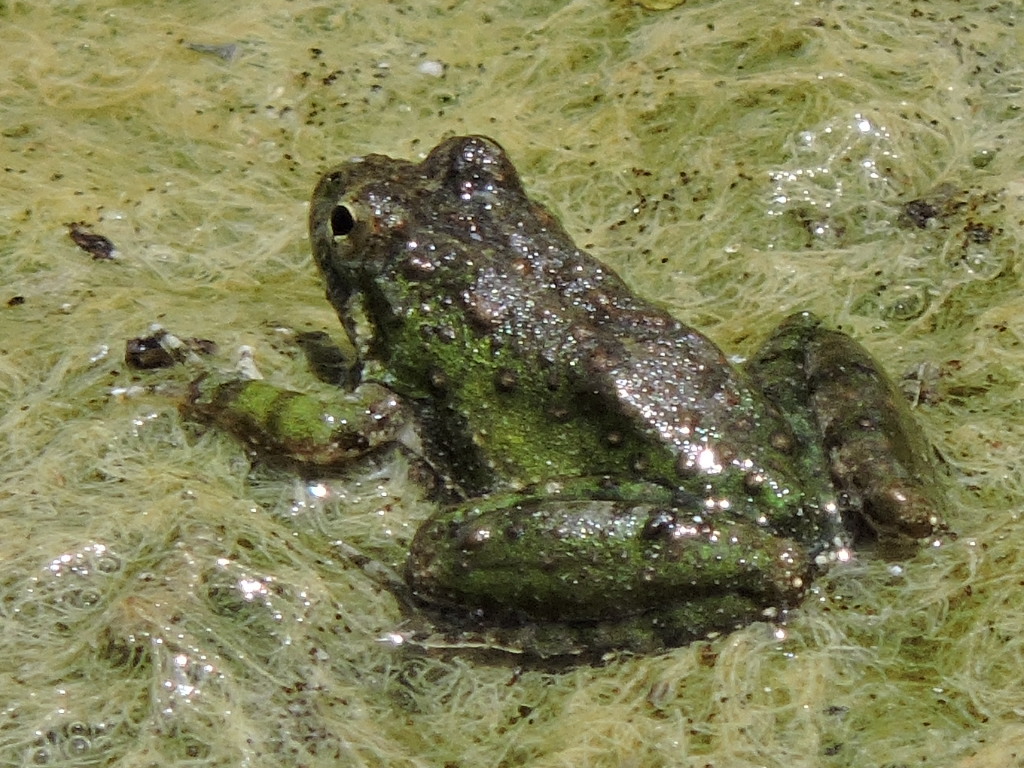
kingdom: Animalia
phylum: Chordata
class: Amphibia
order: Anura
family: Hylidae
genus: Acris
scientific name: Acris blanchardi
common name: Blanchard's cricket frog
